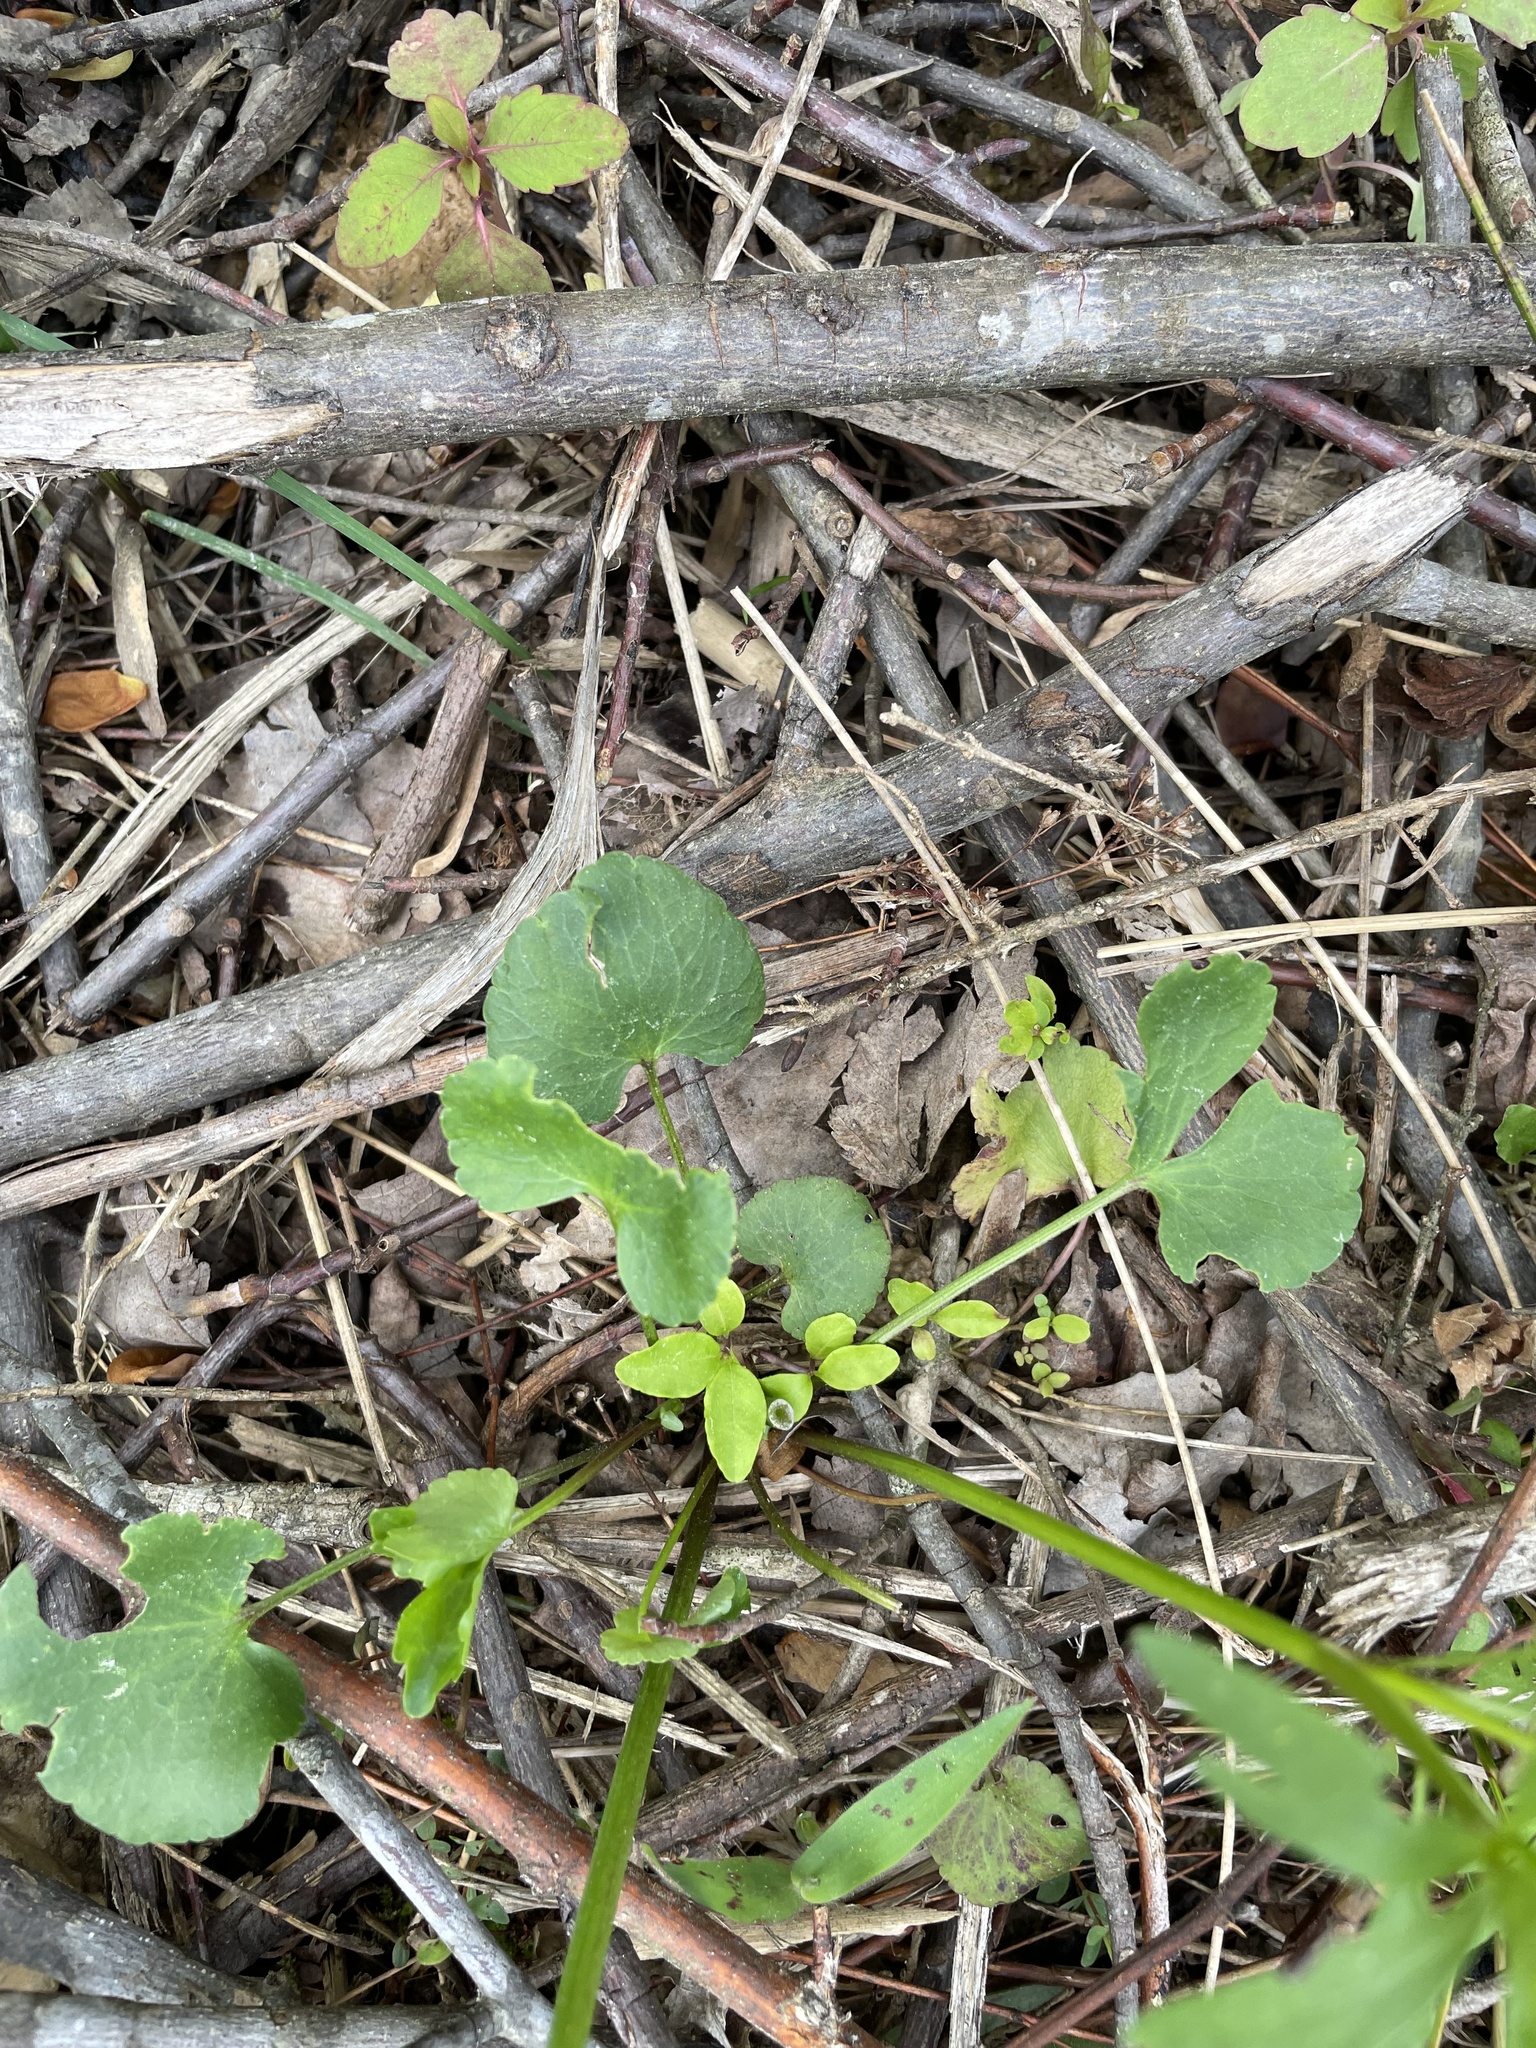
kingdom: Plantae
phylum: Tracheophyta
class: Magnoliopsida
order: Ranunculales
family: Ranunculaceae
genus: Ranunculus
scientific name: Ranunculus abortivus
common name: Early wood buttercup
